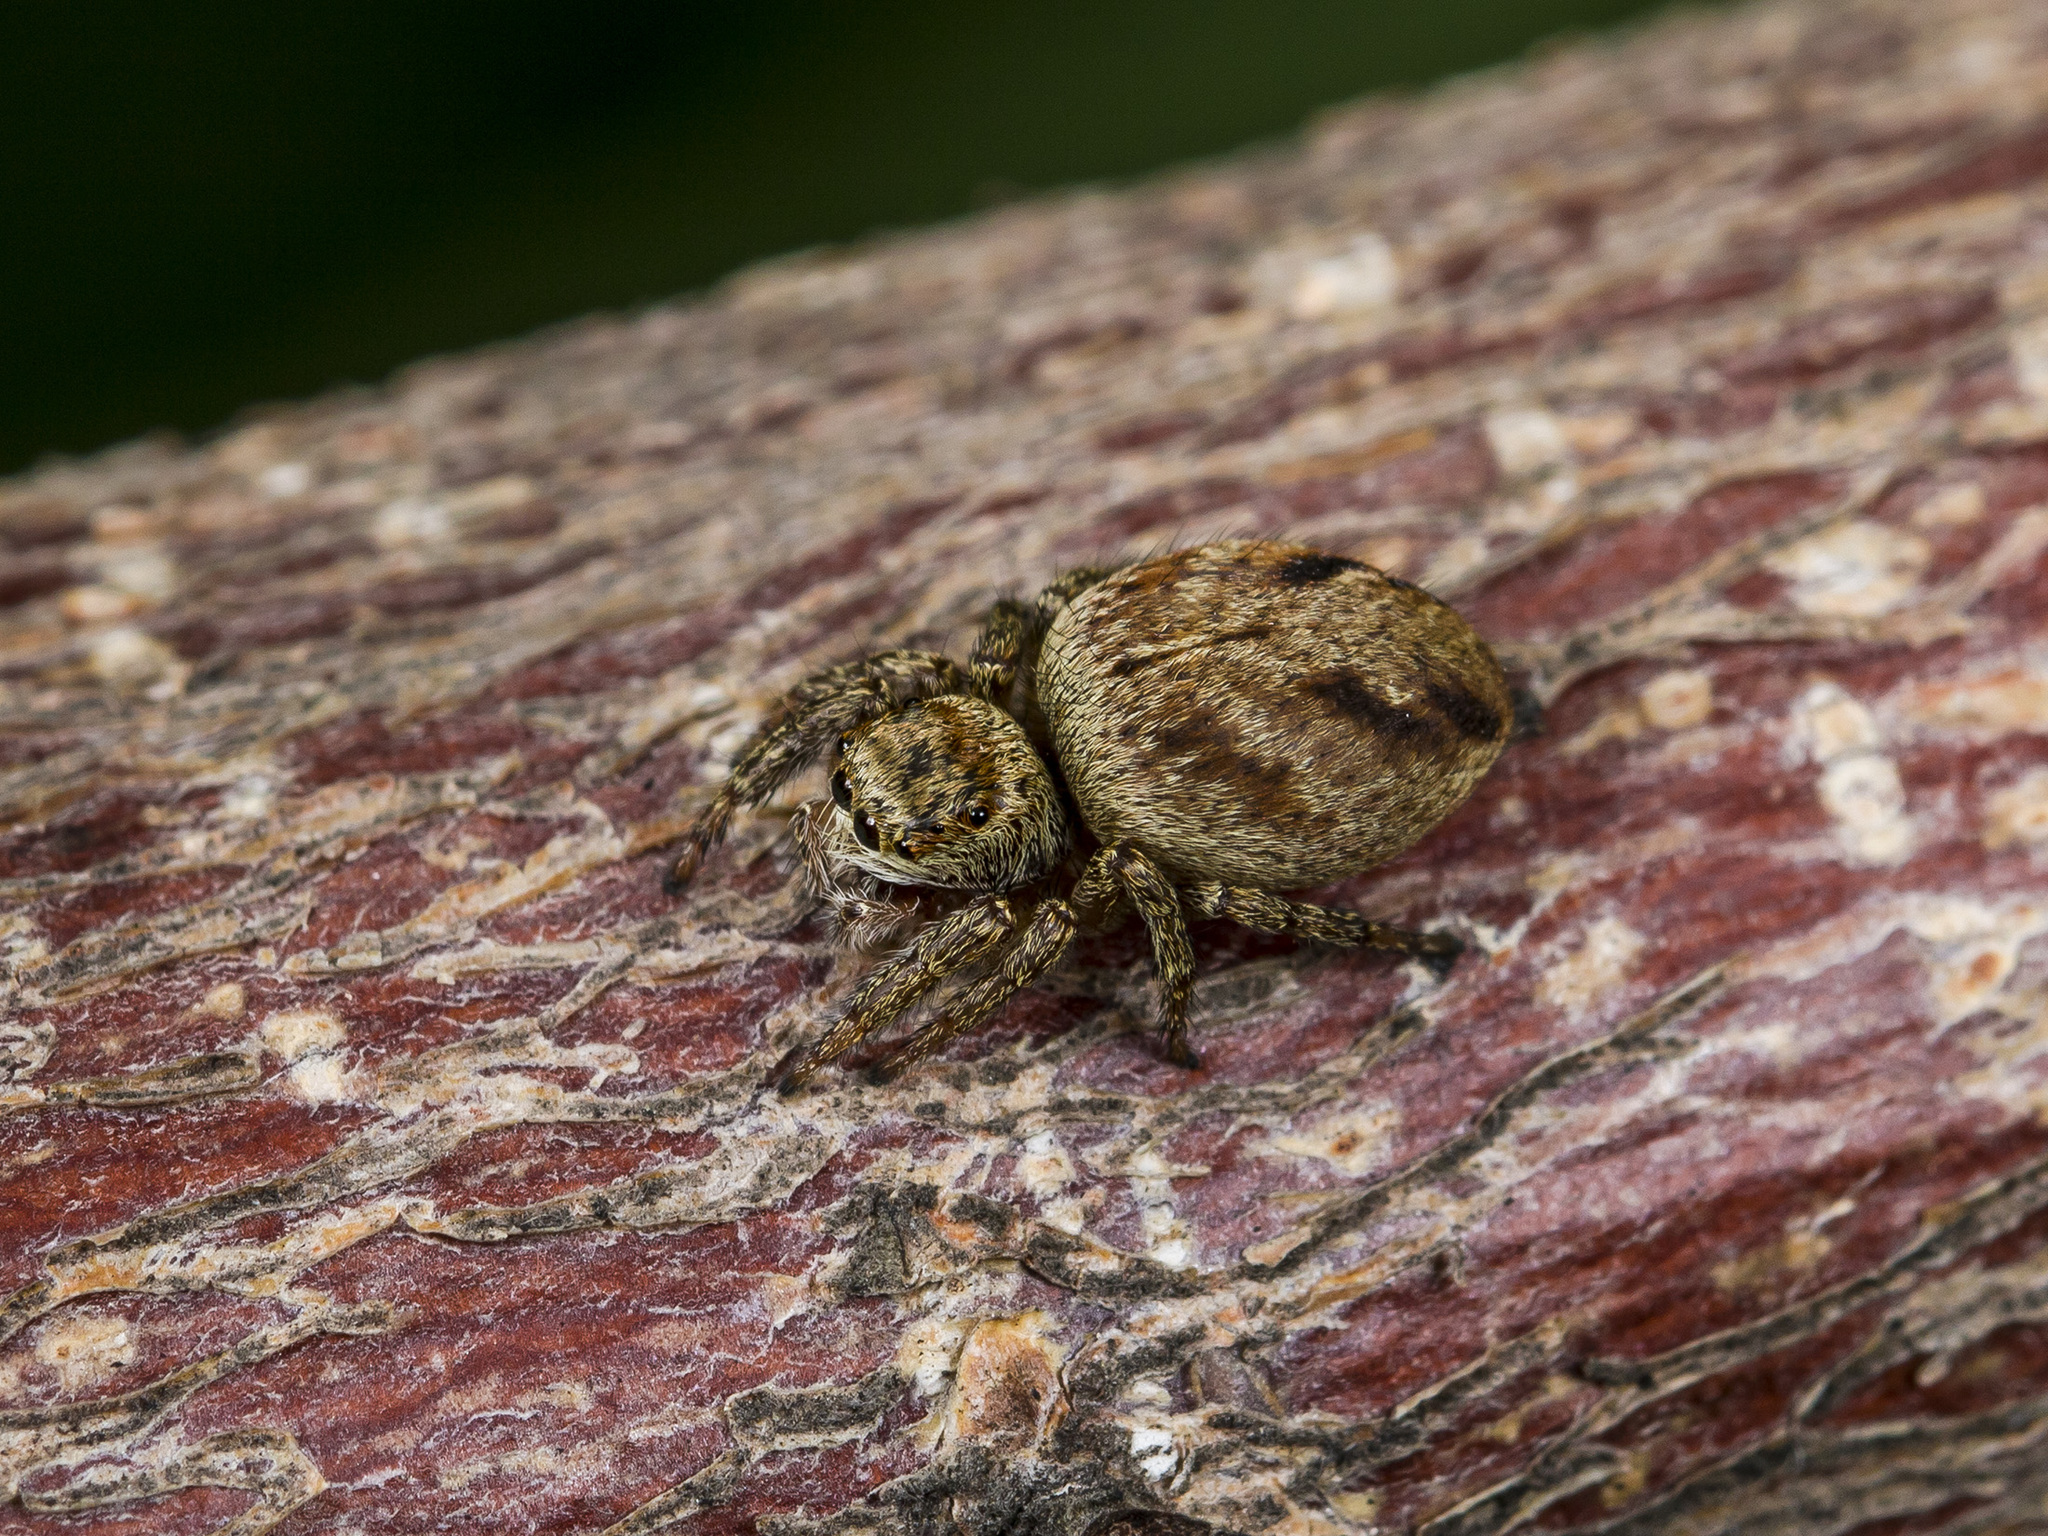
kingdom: Animalia
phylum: Arthropoda
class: Arachnida
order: Araneae
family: Salticidae
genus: Evarcha
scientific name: Evarcha arcuata
